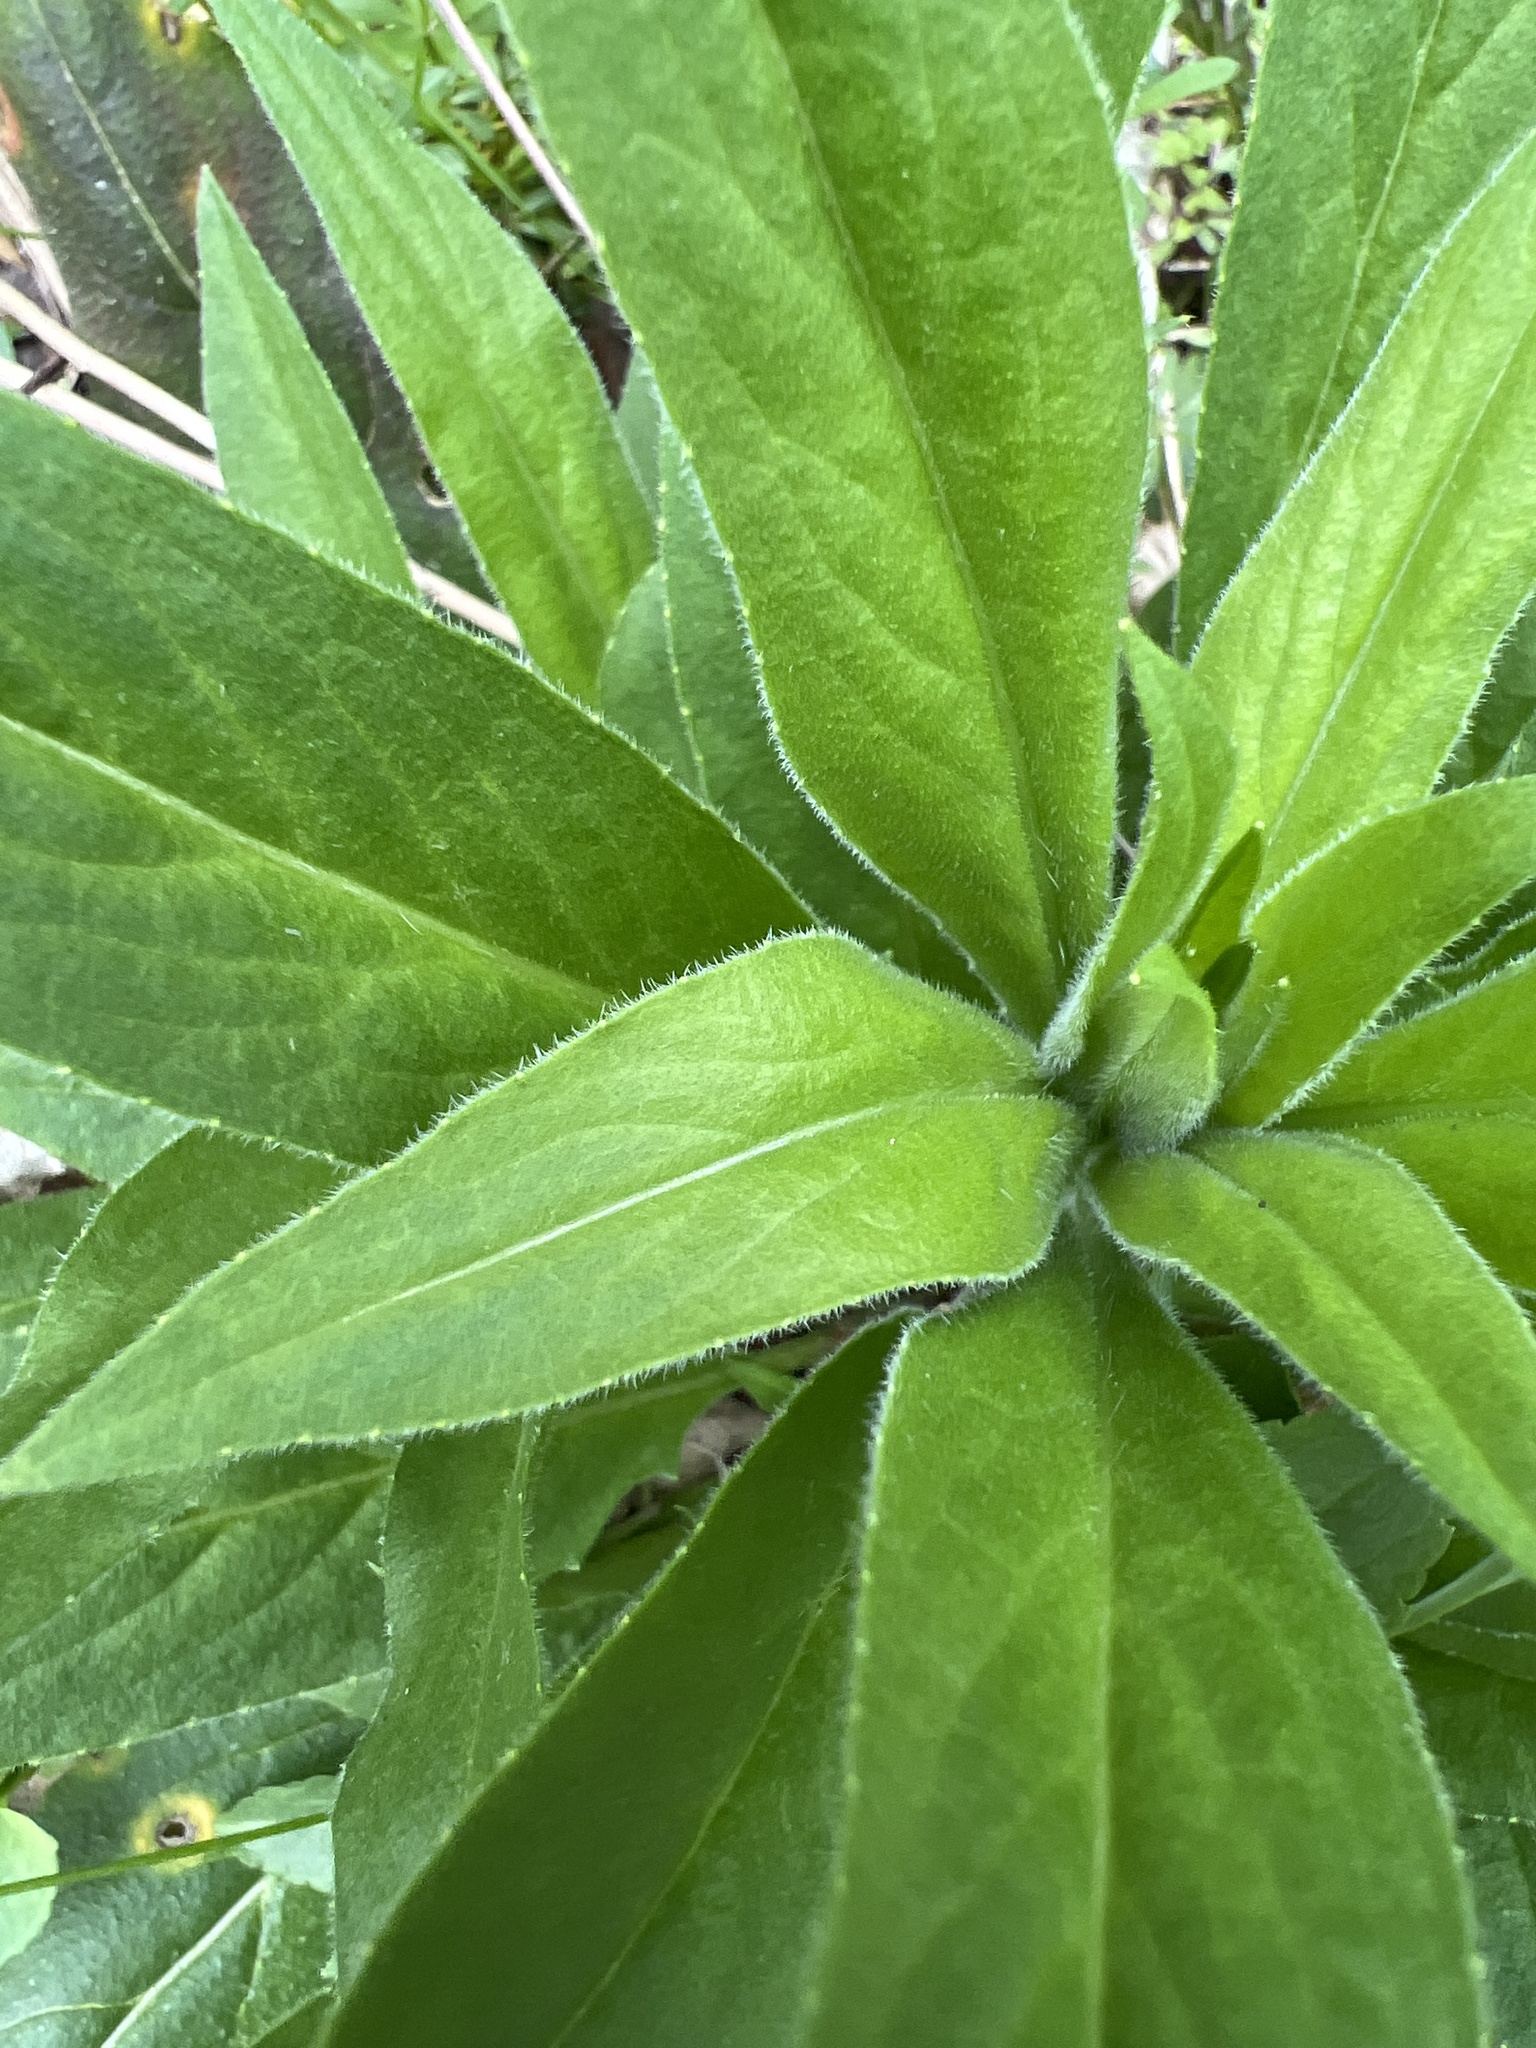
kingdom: Plantae
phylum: Tracheophyta
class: Magnoliopsida
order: Brassicales
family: Brassicaceae
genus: Hesperis
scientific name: Hesperis matronalis
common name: Dame's-violet
